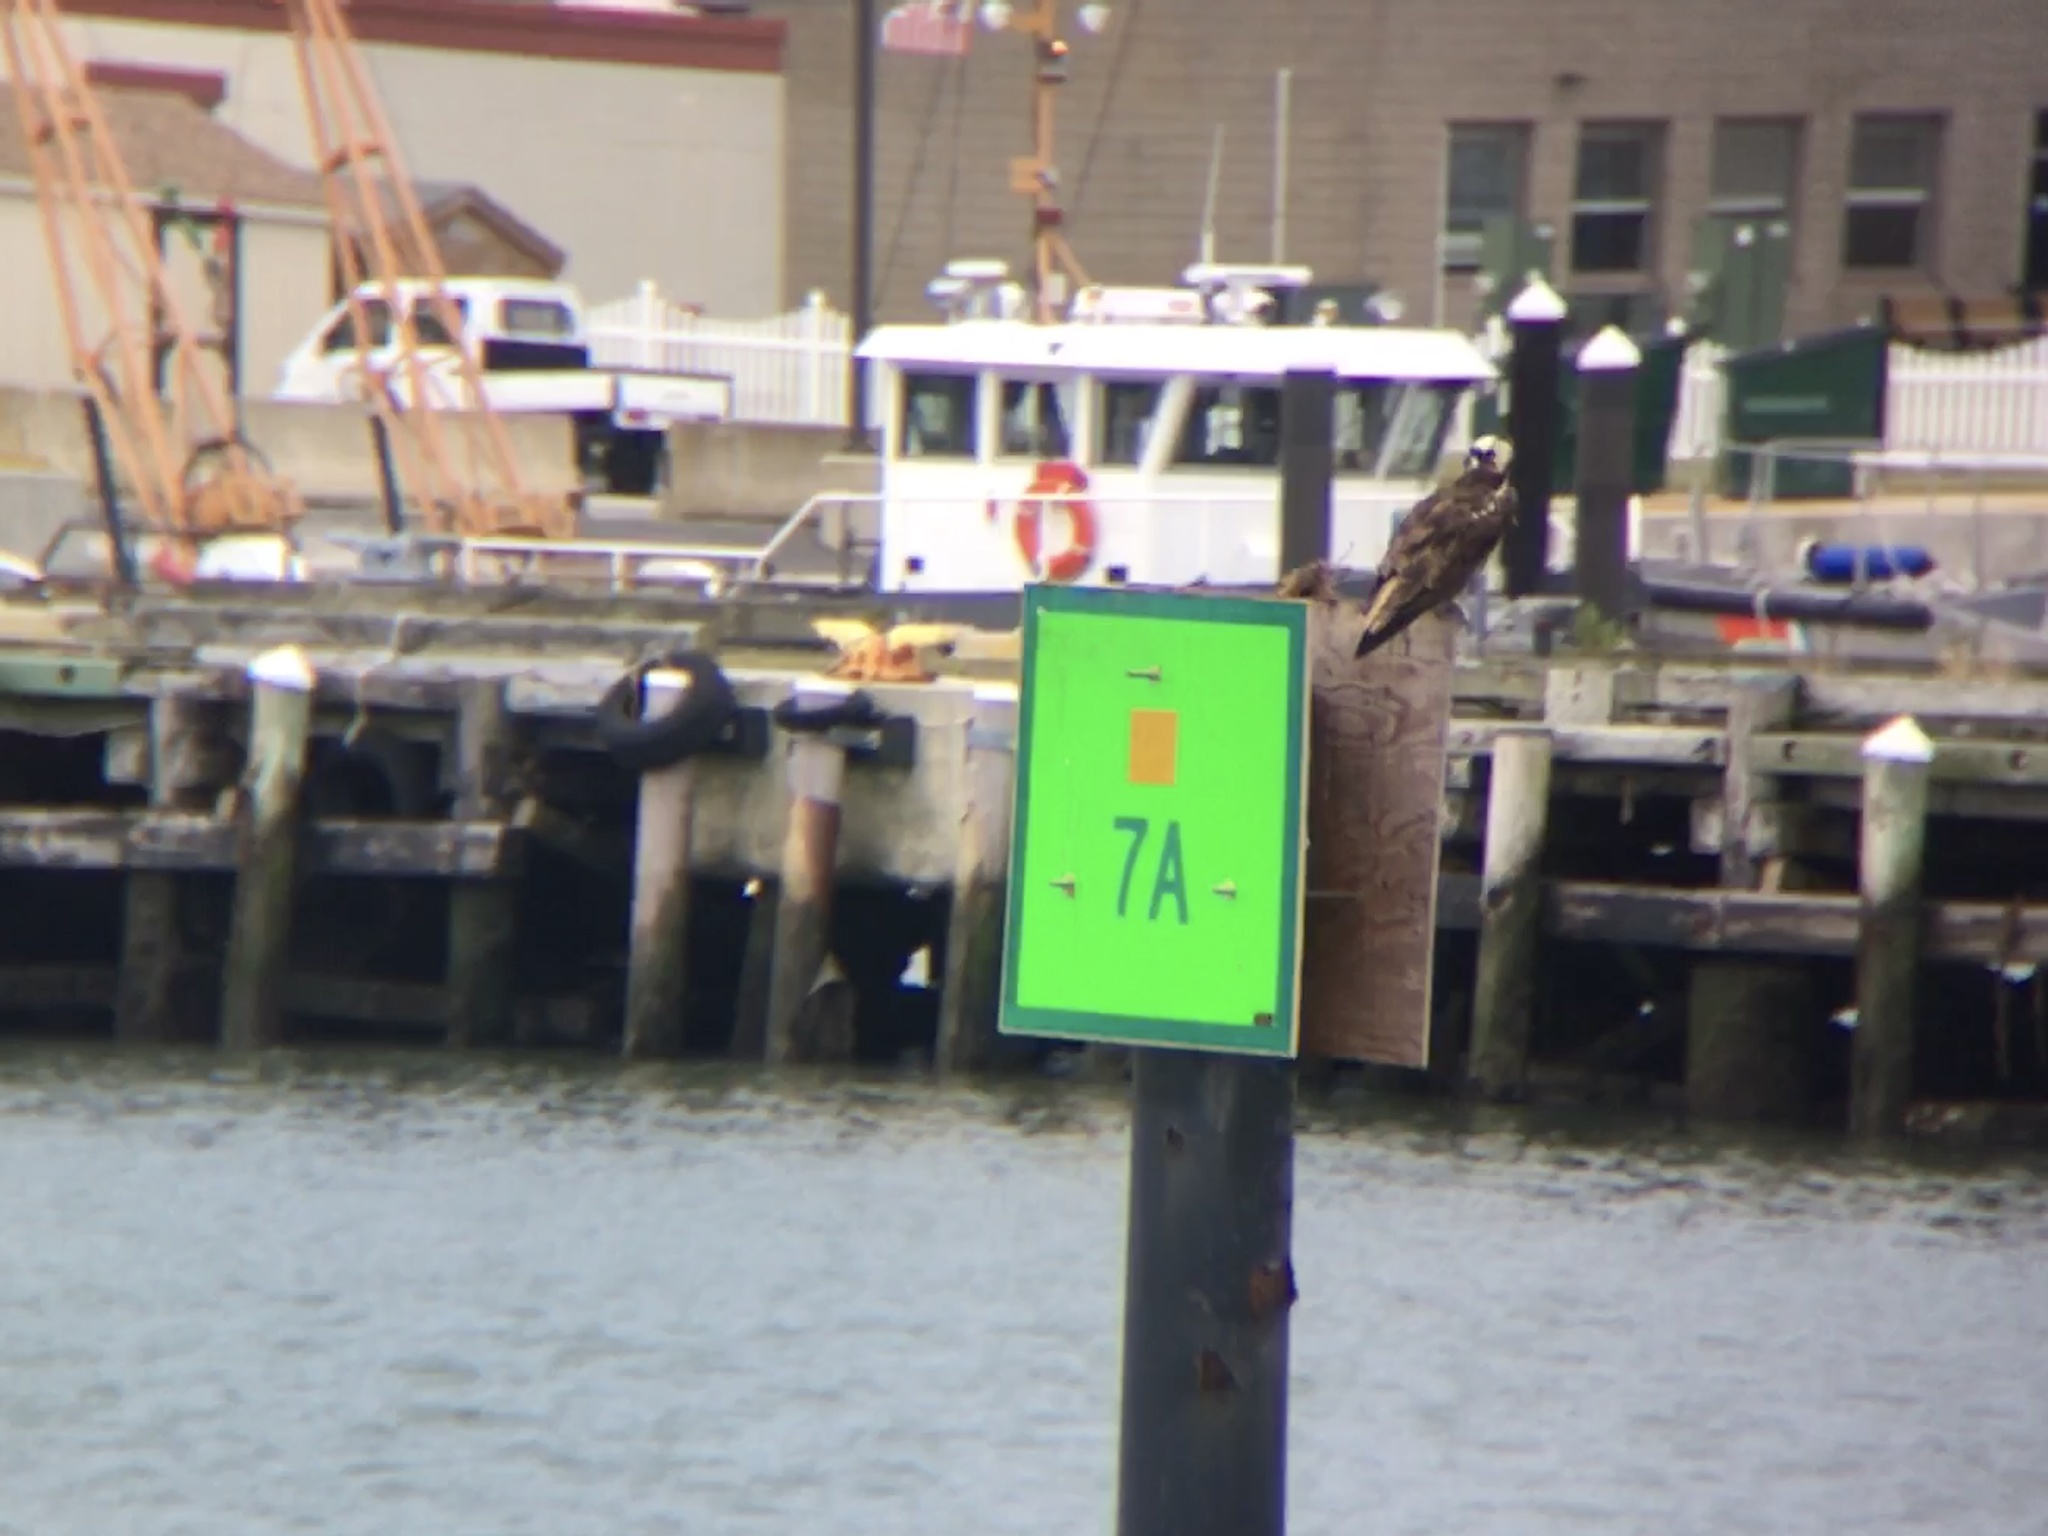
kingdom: Animalia
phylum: Chordata
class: Aves
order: Accipitriformes
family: Pandionidae
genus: Pandion
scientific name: Pandion haliaetus
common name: Osprey
